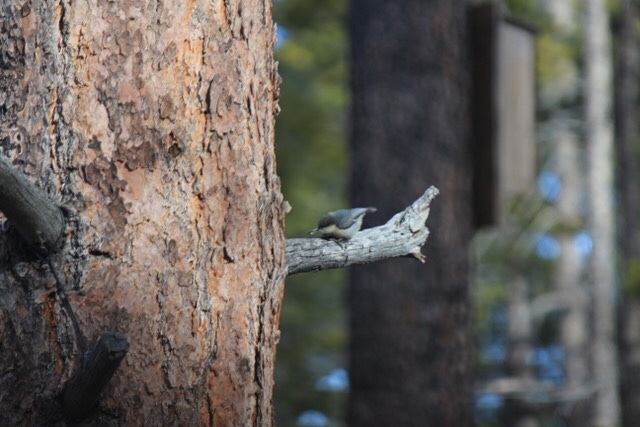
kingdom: Animalia
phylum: Chordata
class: Aves
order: Passeriformes
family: Sittidae
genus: Sitta
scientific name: Sitta pygmaea
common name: Pygmy nuthatch
